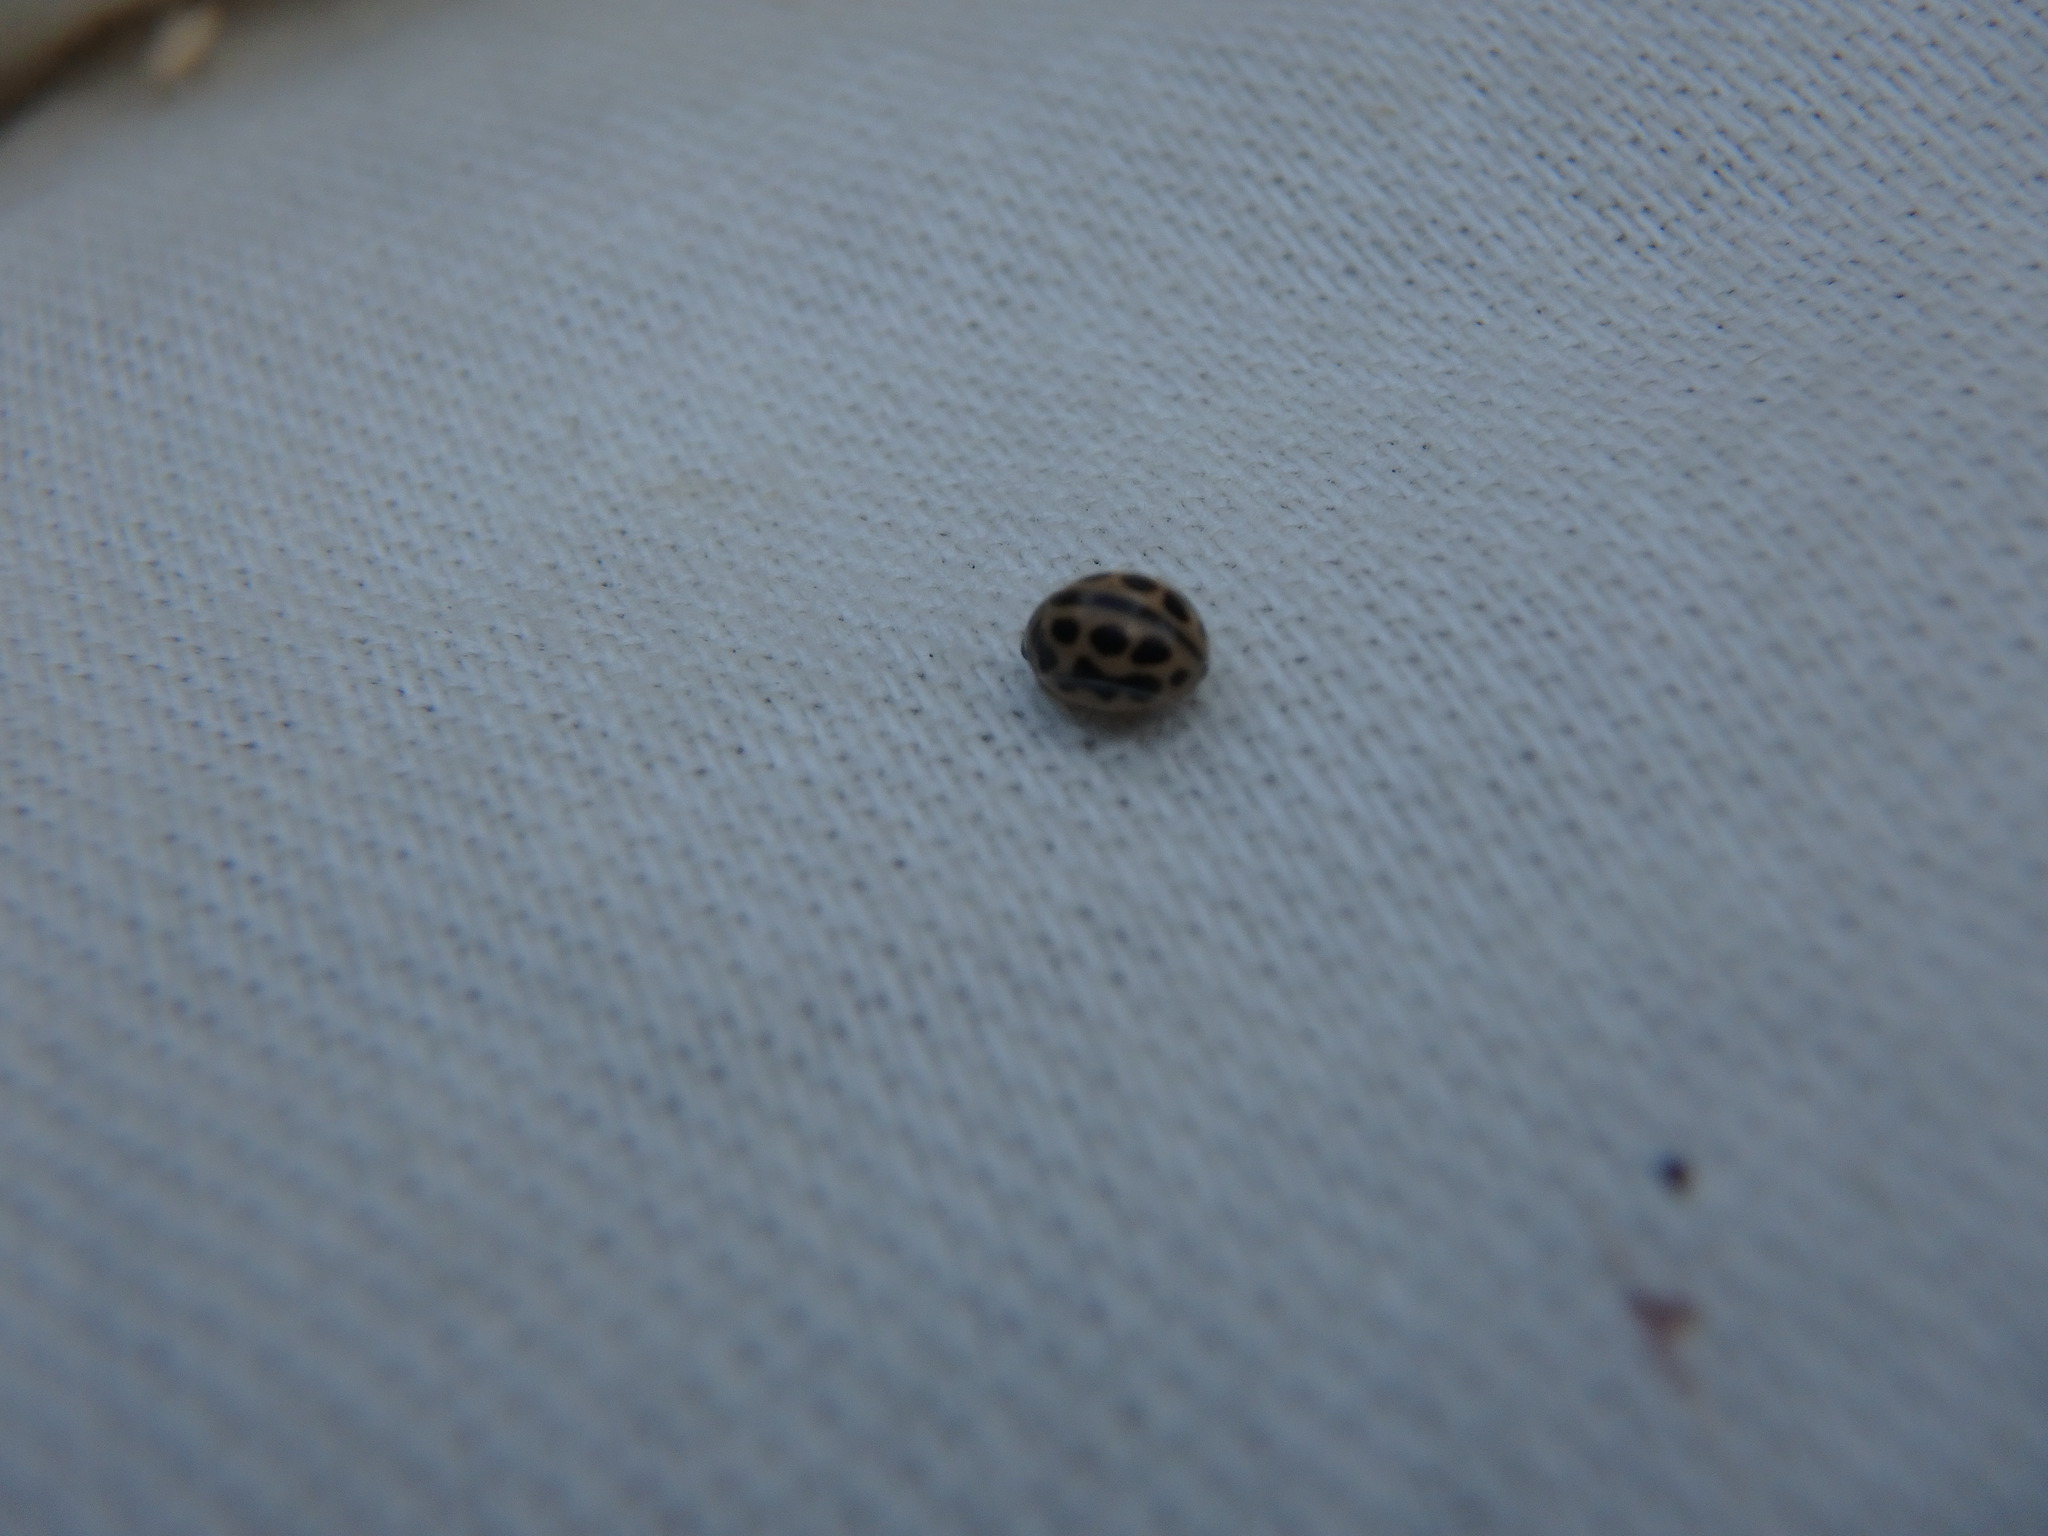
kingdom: Animalia
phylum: Arthropoda
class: Insecta
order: Coleoptera
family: Coccinellidae
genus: Tytthaspis
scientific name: Tytthaspis sedecimpunctata
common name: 16-spot ladybird
